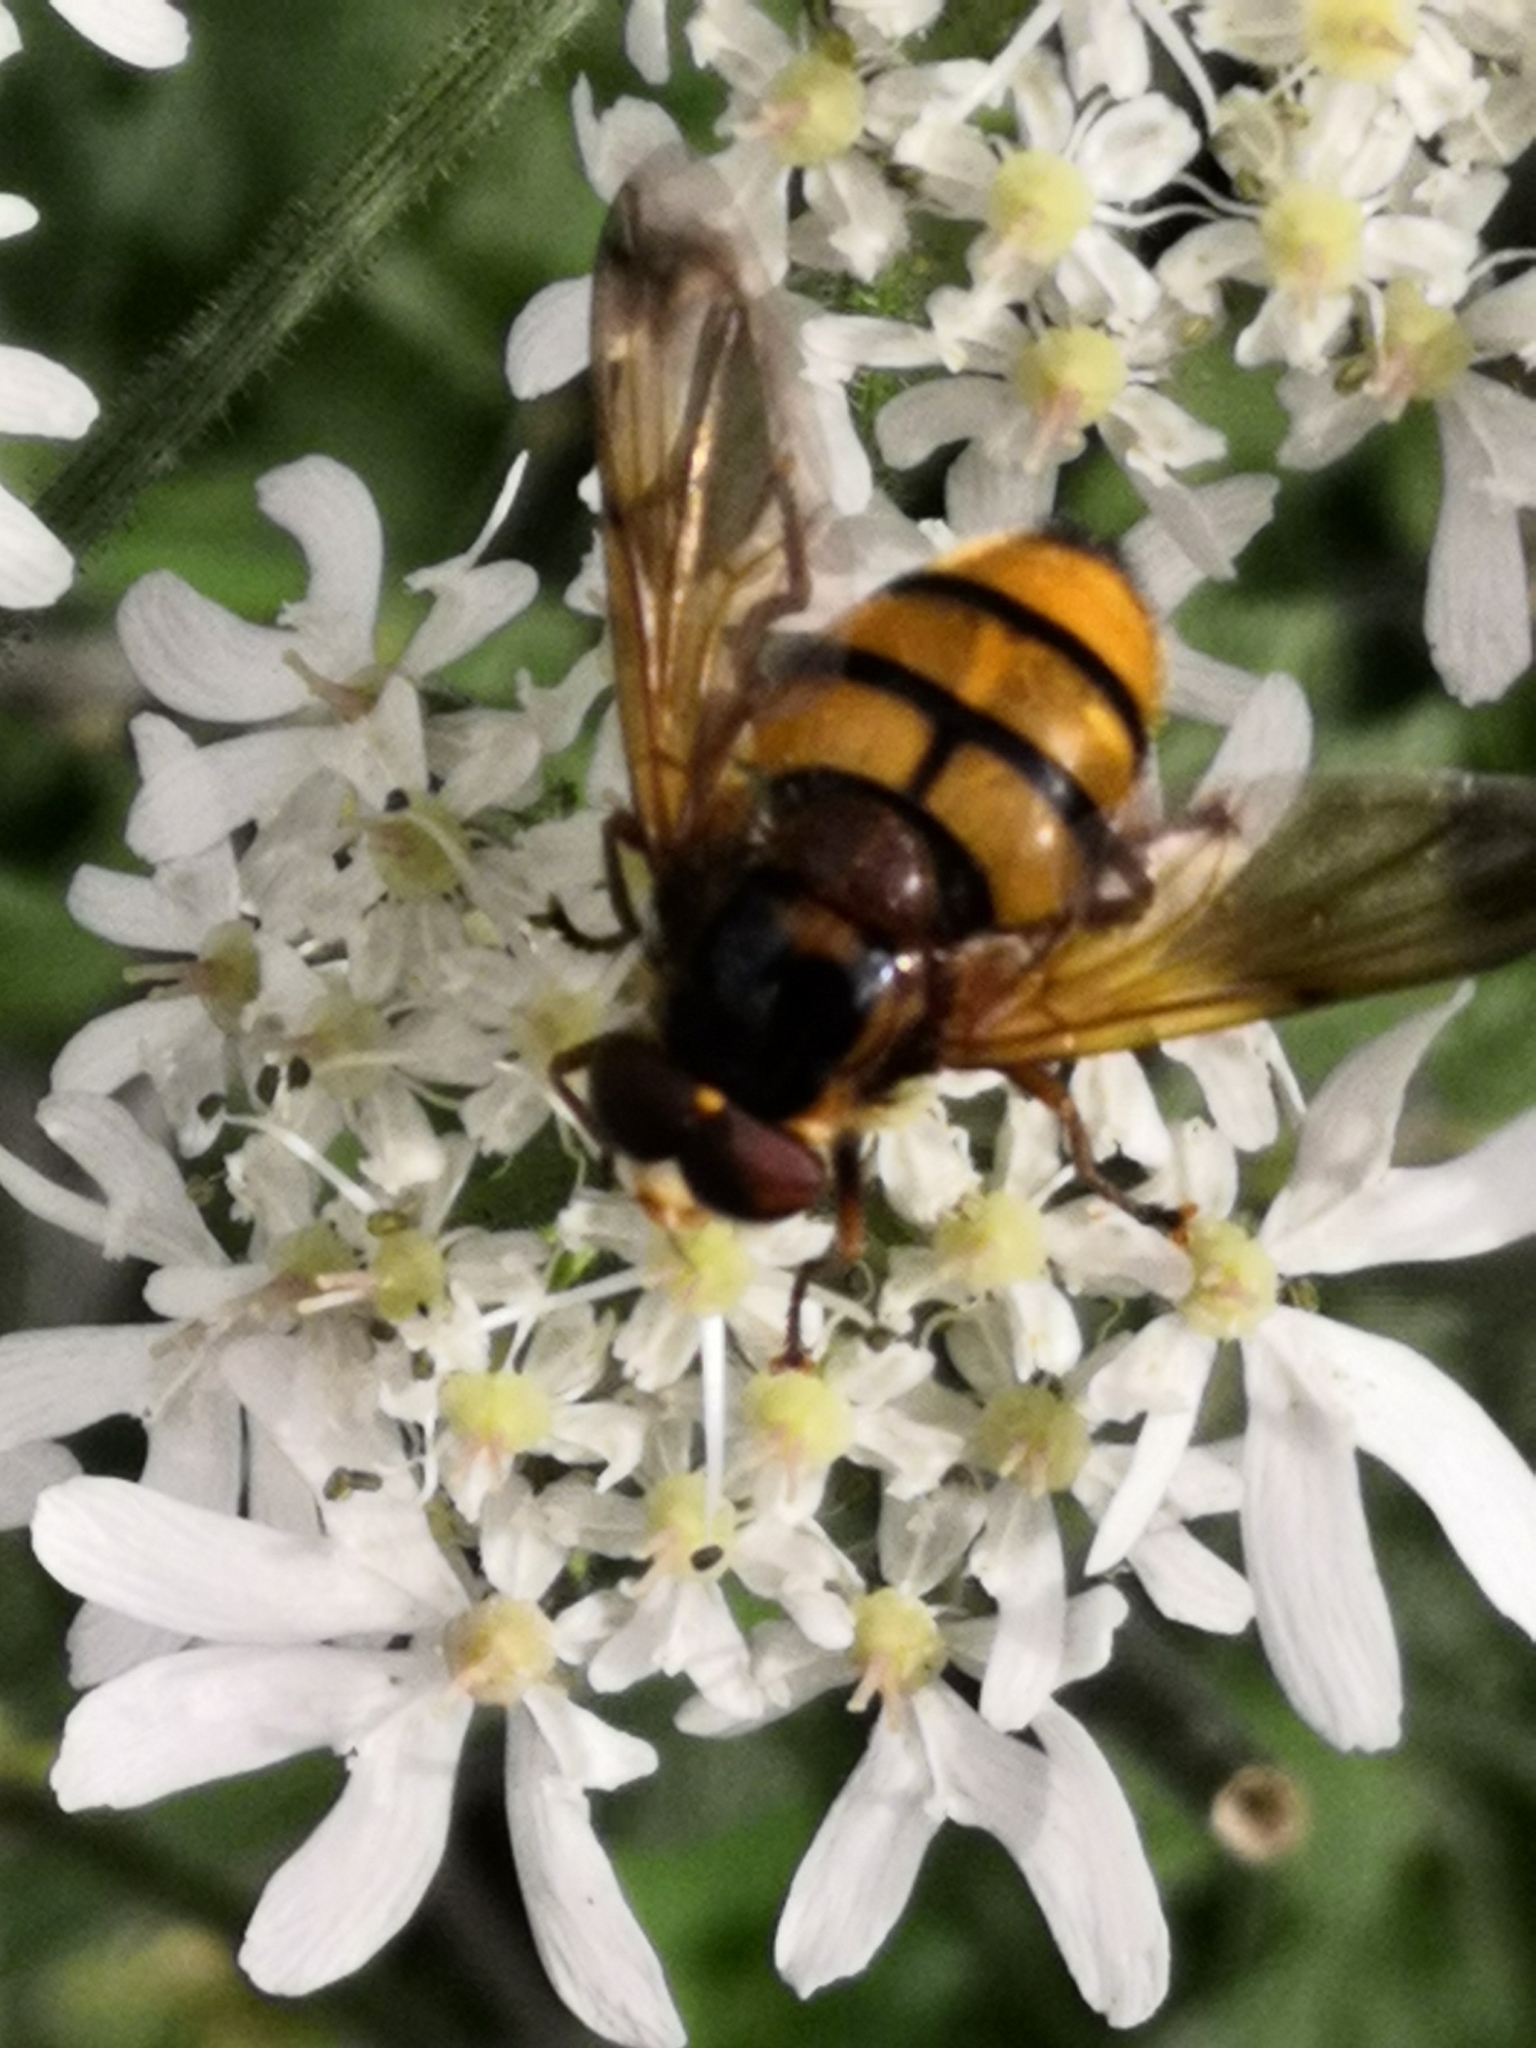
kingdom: Animalia
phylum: Arthropoda
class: Insecta
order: Diptera
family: Syrphidae
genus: Volucella
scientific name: Volucella inanis
